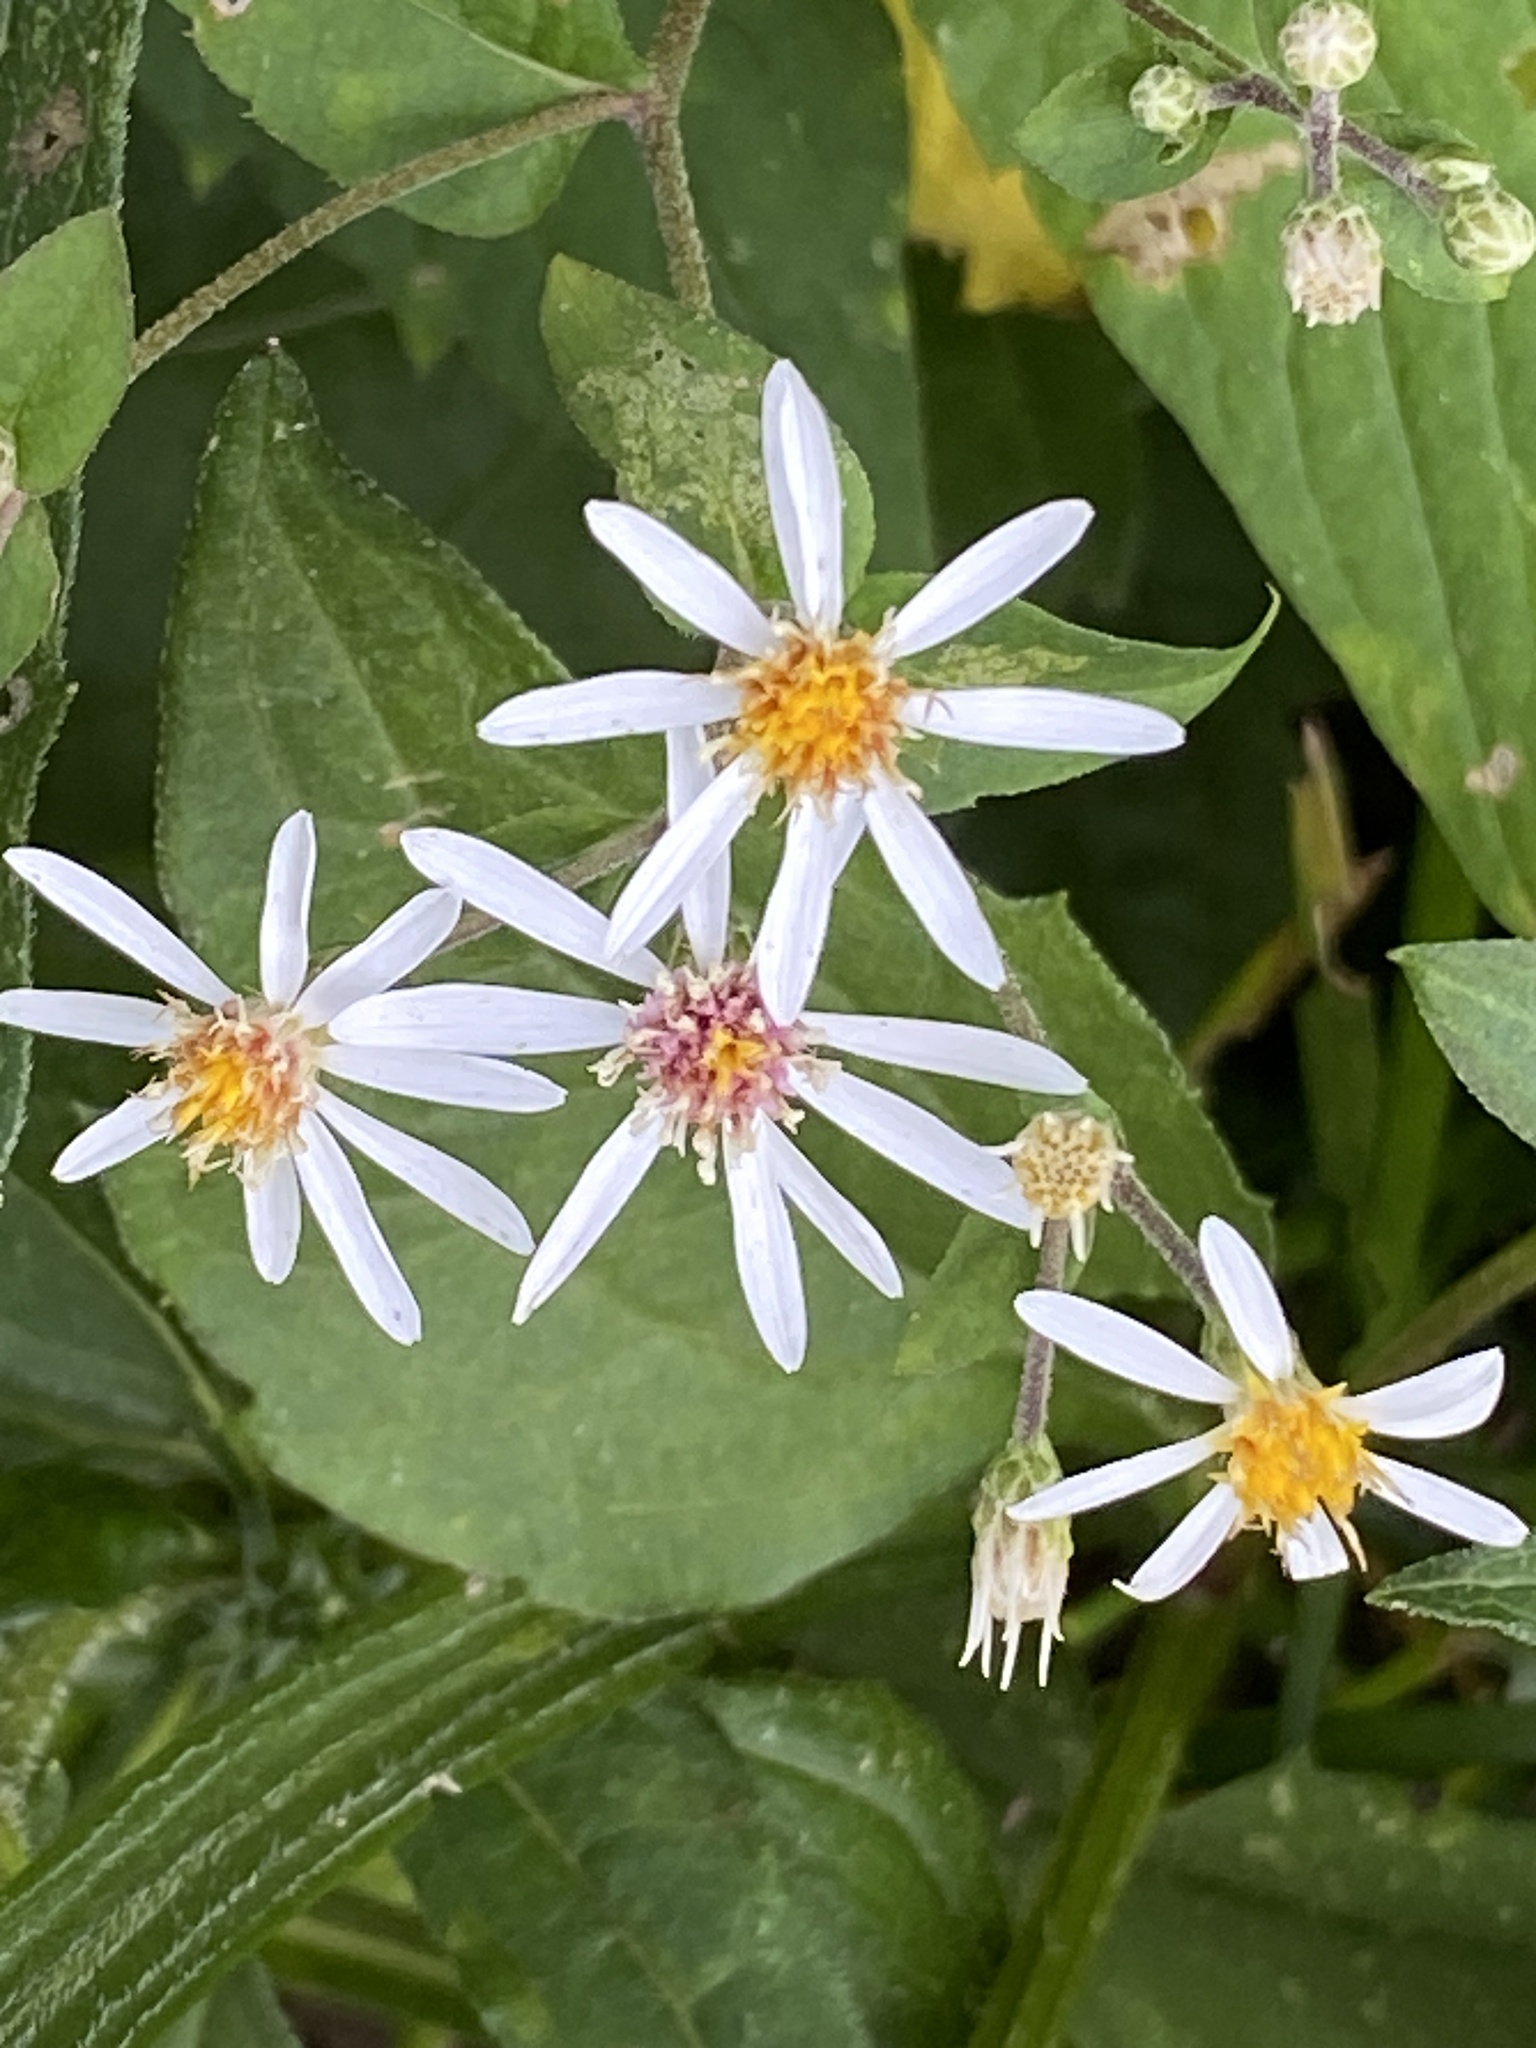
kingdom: Plantae
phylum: Tracheophyta
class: Magnoliopsida
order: Asterales
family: Asteraceae
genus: Eurybia
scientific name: Eurybia divaricata
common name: White wood aster
